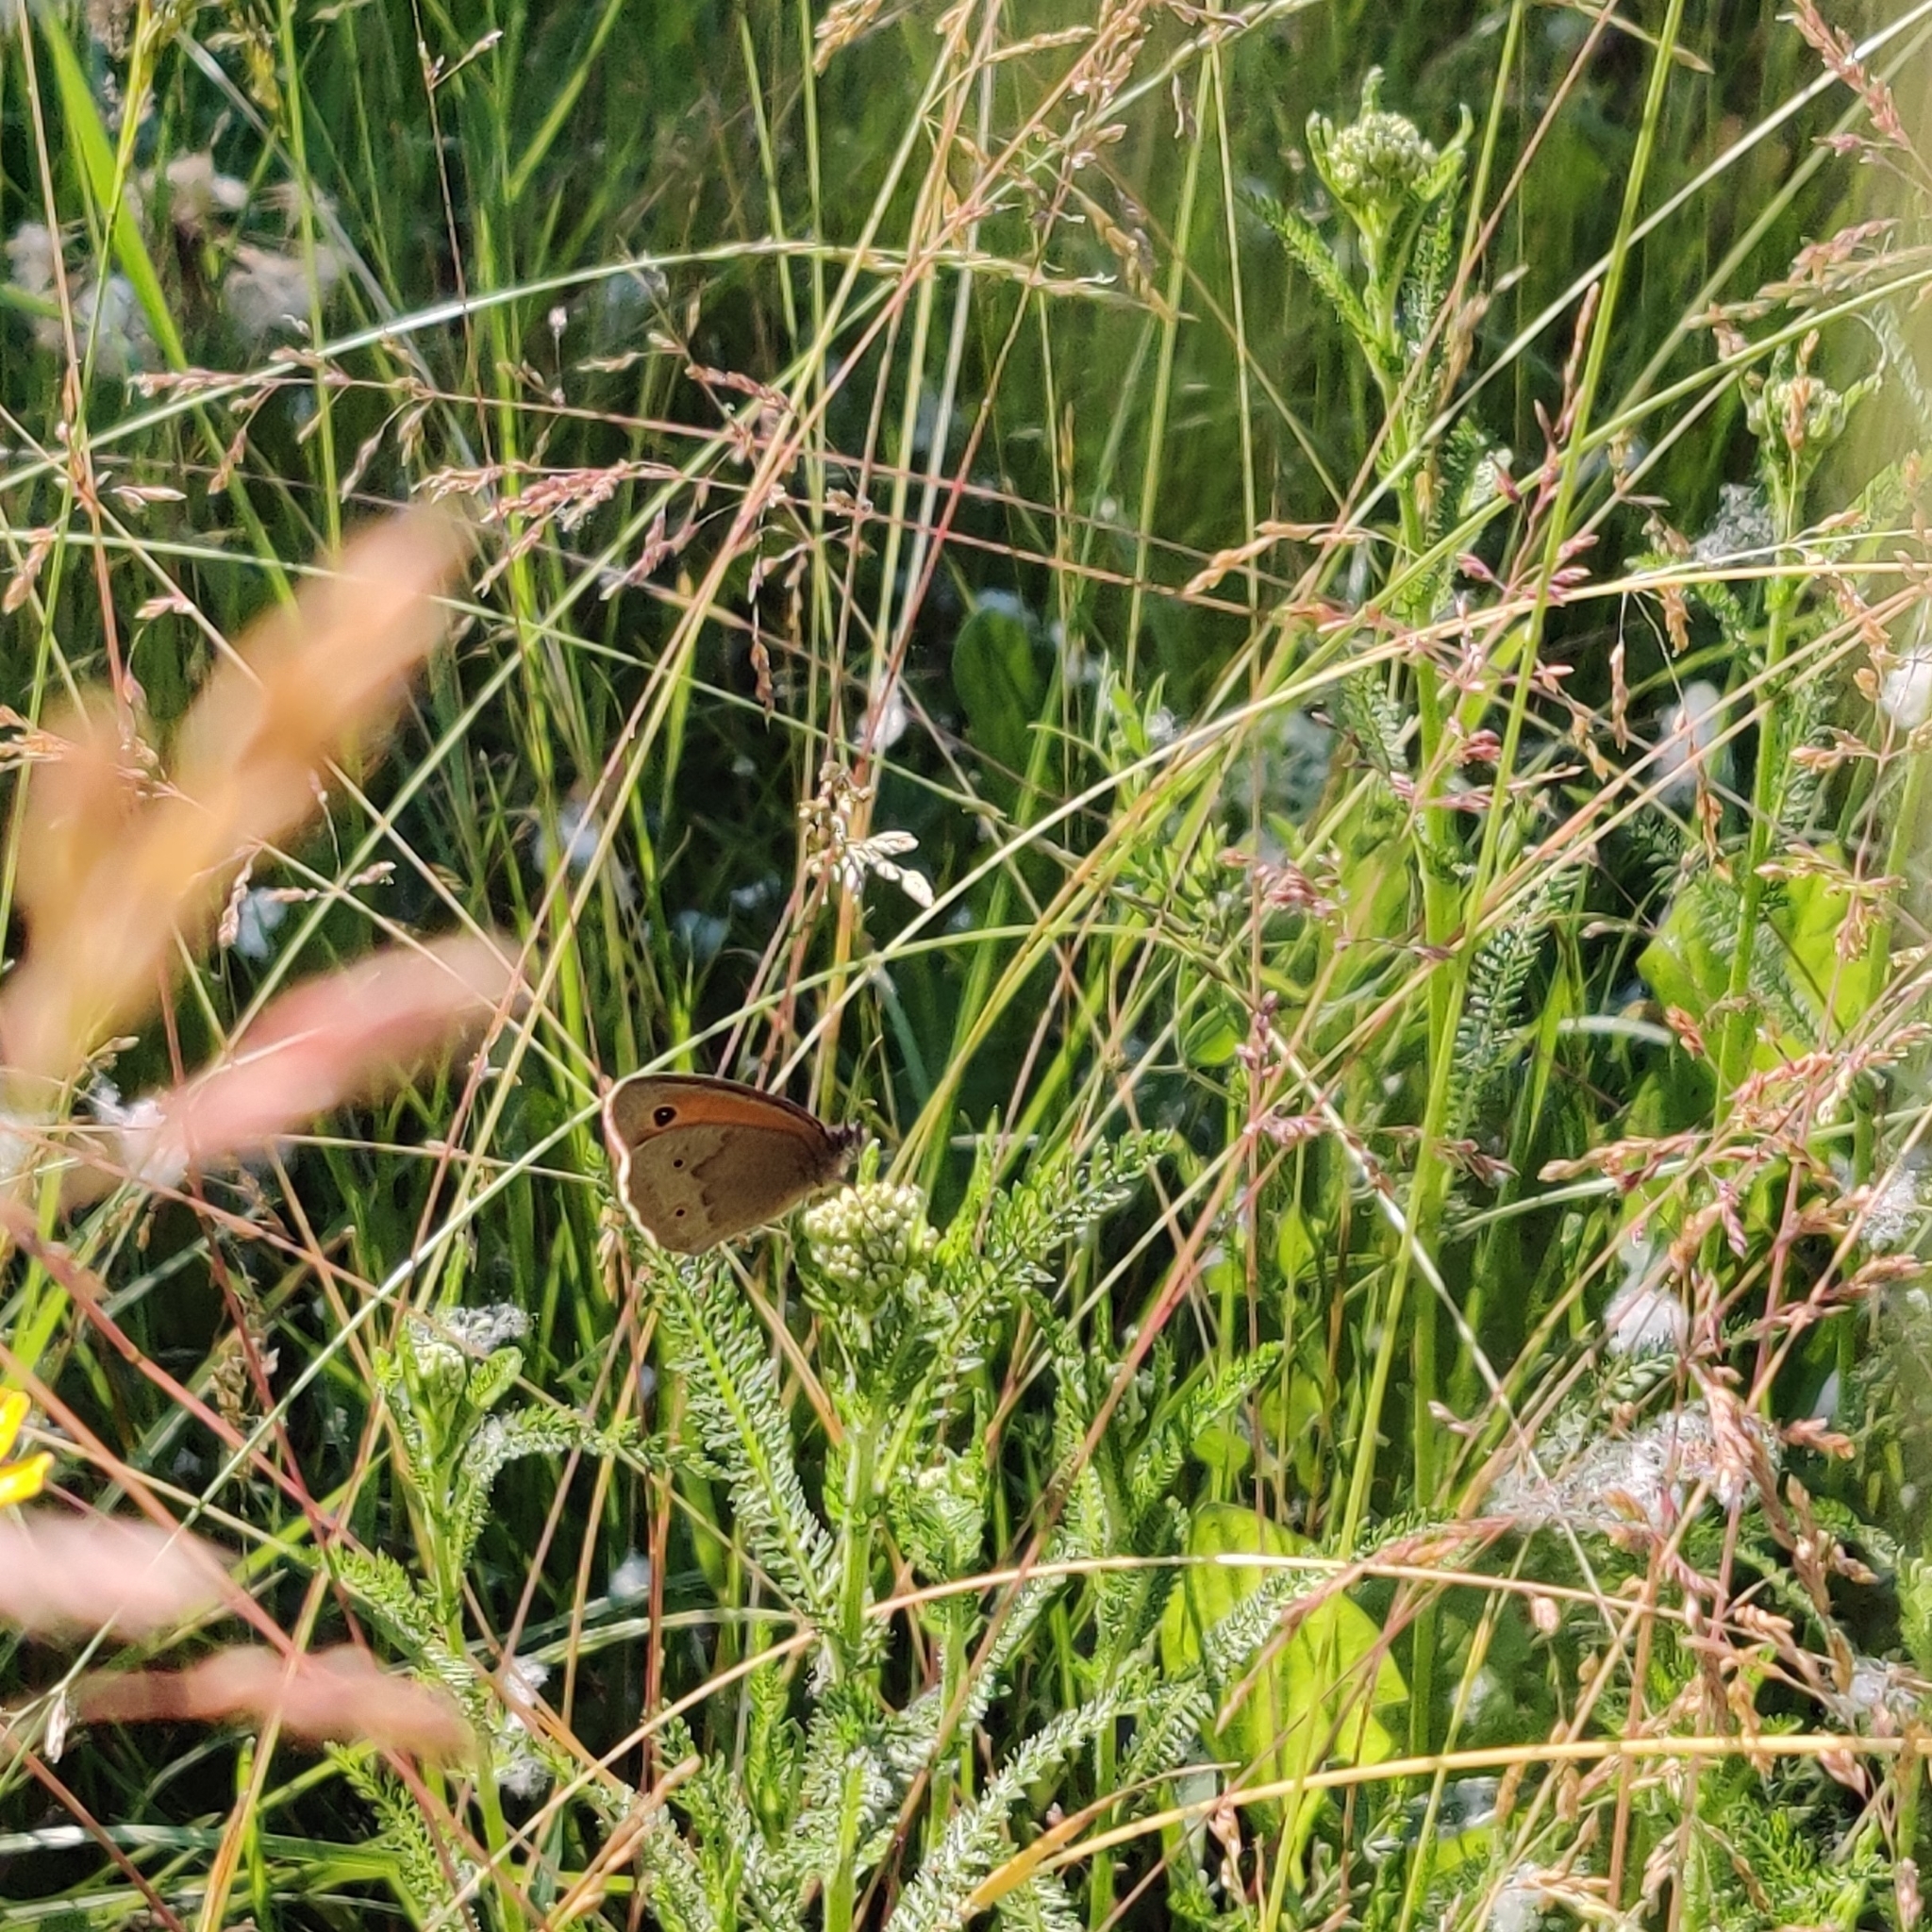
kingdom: Animalia
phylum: Arthropoda
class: Insecta
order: Lepidoptera
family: Nymphalidae
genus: Maniola
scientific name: Maniola jurtina
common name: Meadow brown
